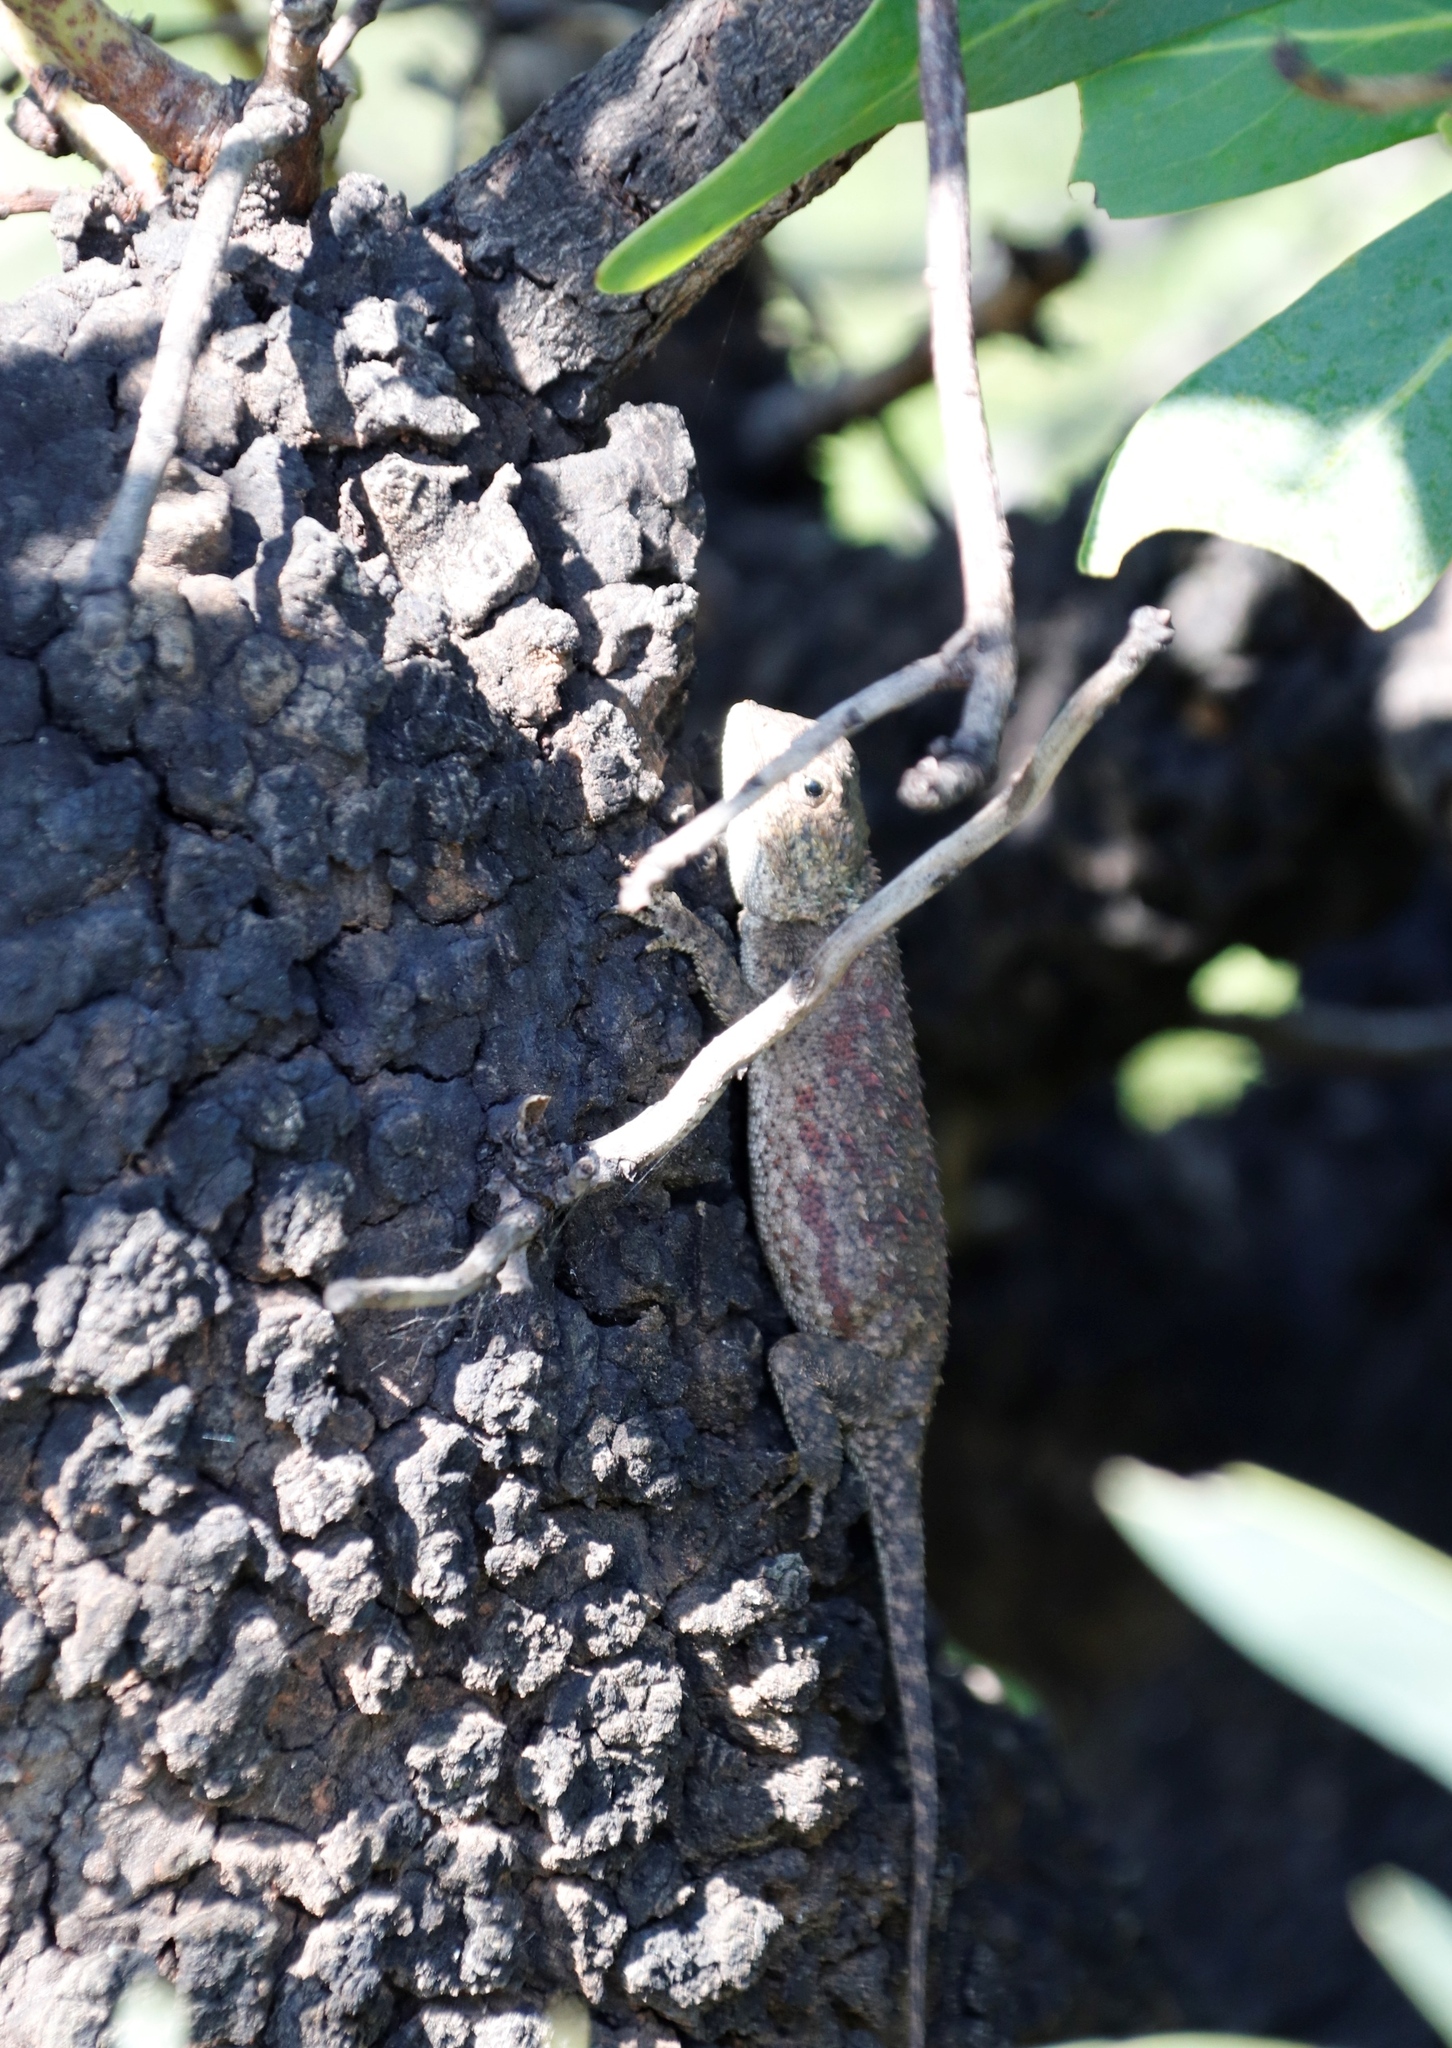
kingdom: Animalia
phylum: Chordata
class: Squamata
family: Agamidae
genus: Agama
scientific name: Agama aculeata
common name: Common ground agama
